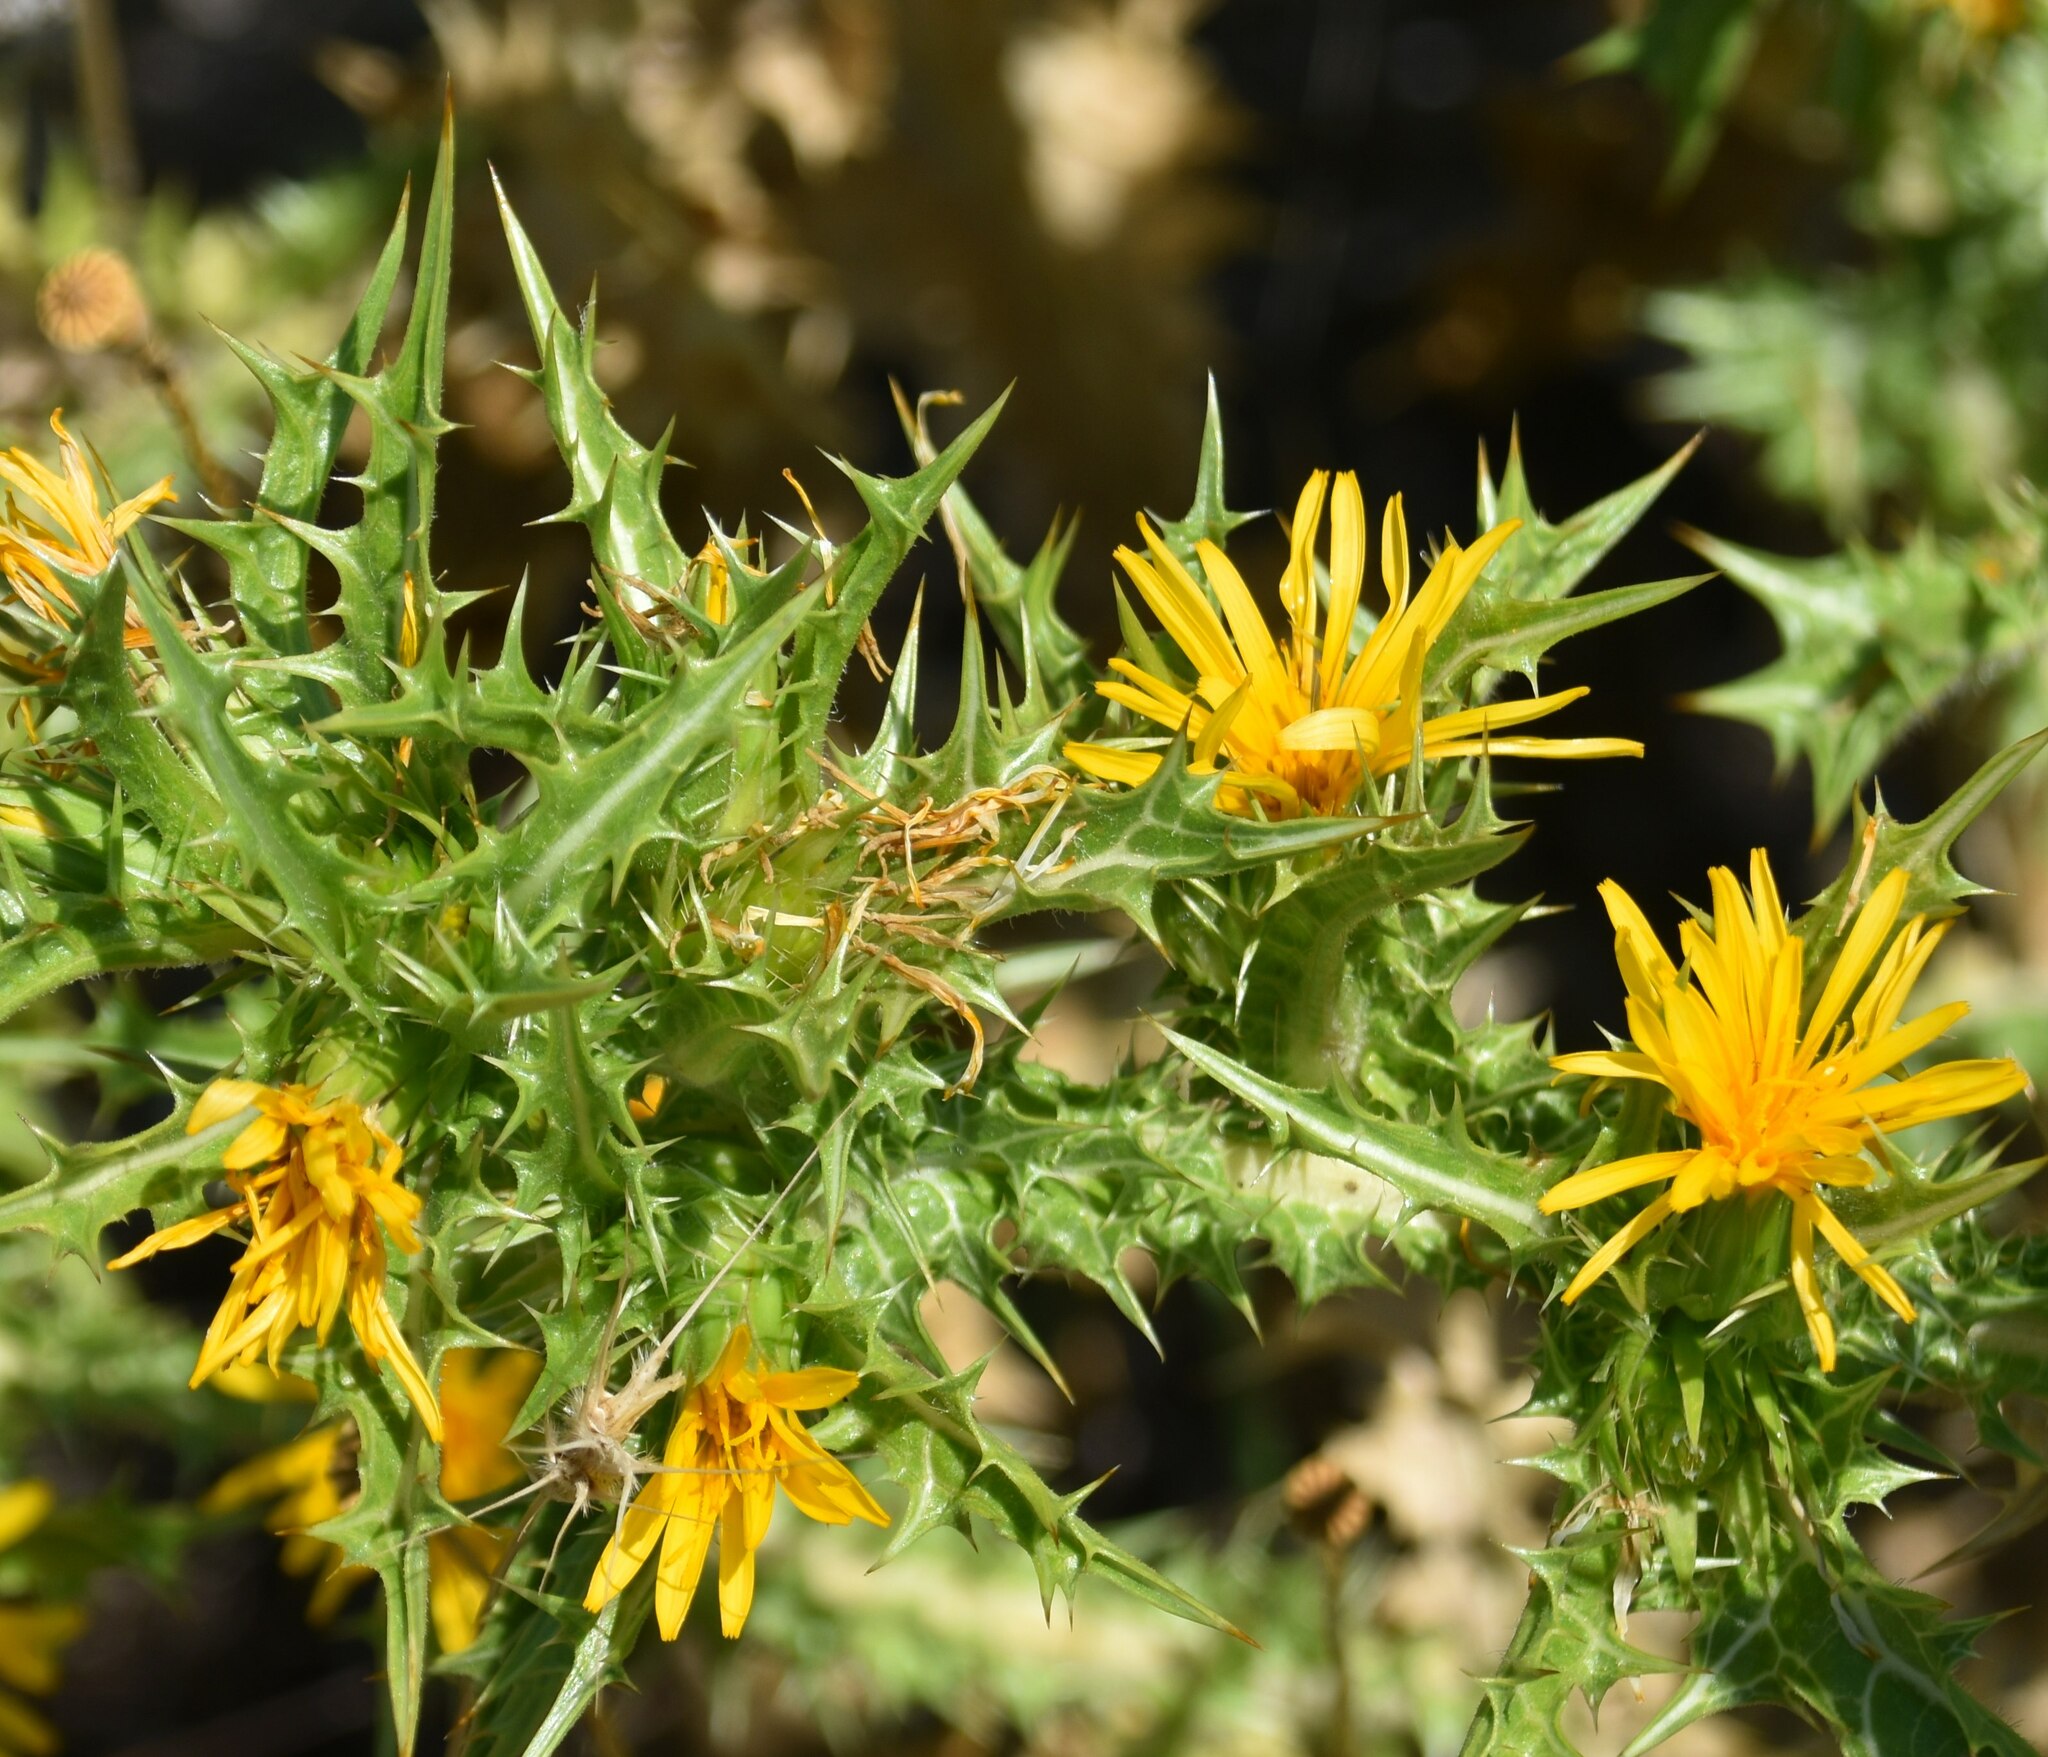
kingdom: Plantae
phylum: Tracheophyta
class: Magnoliopsida
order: Asterales
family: Asteraceae
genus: Scolymus
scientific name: Scolymus hispanicus
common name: Golden thistle
